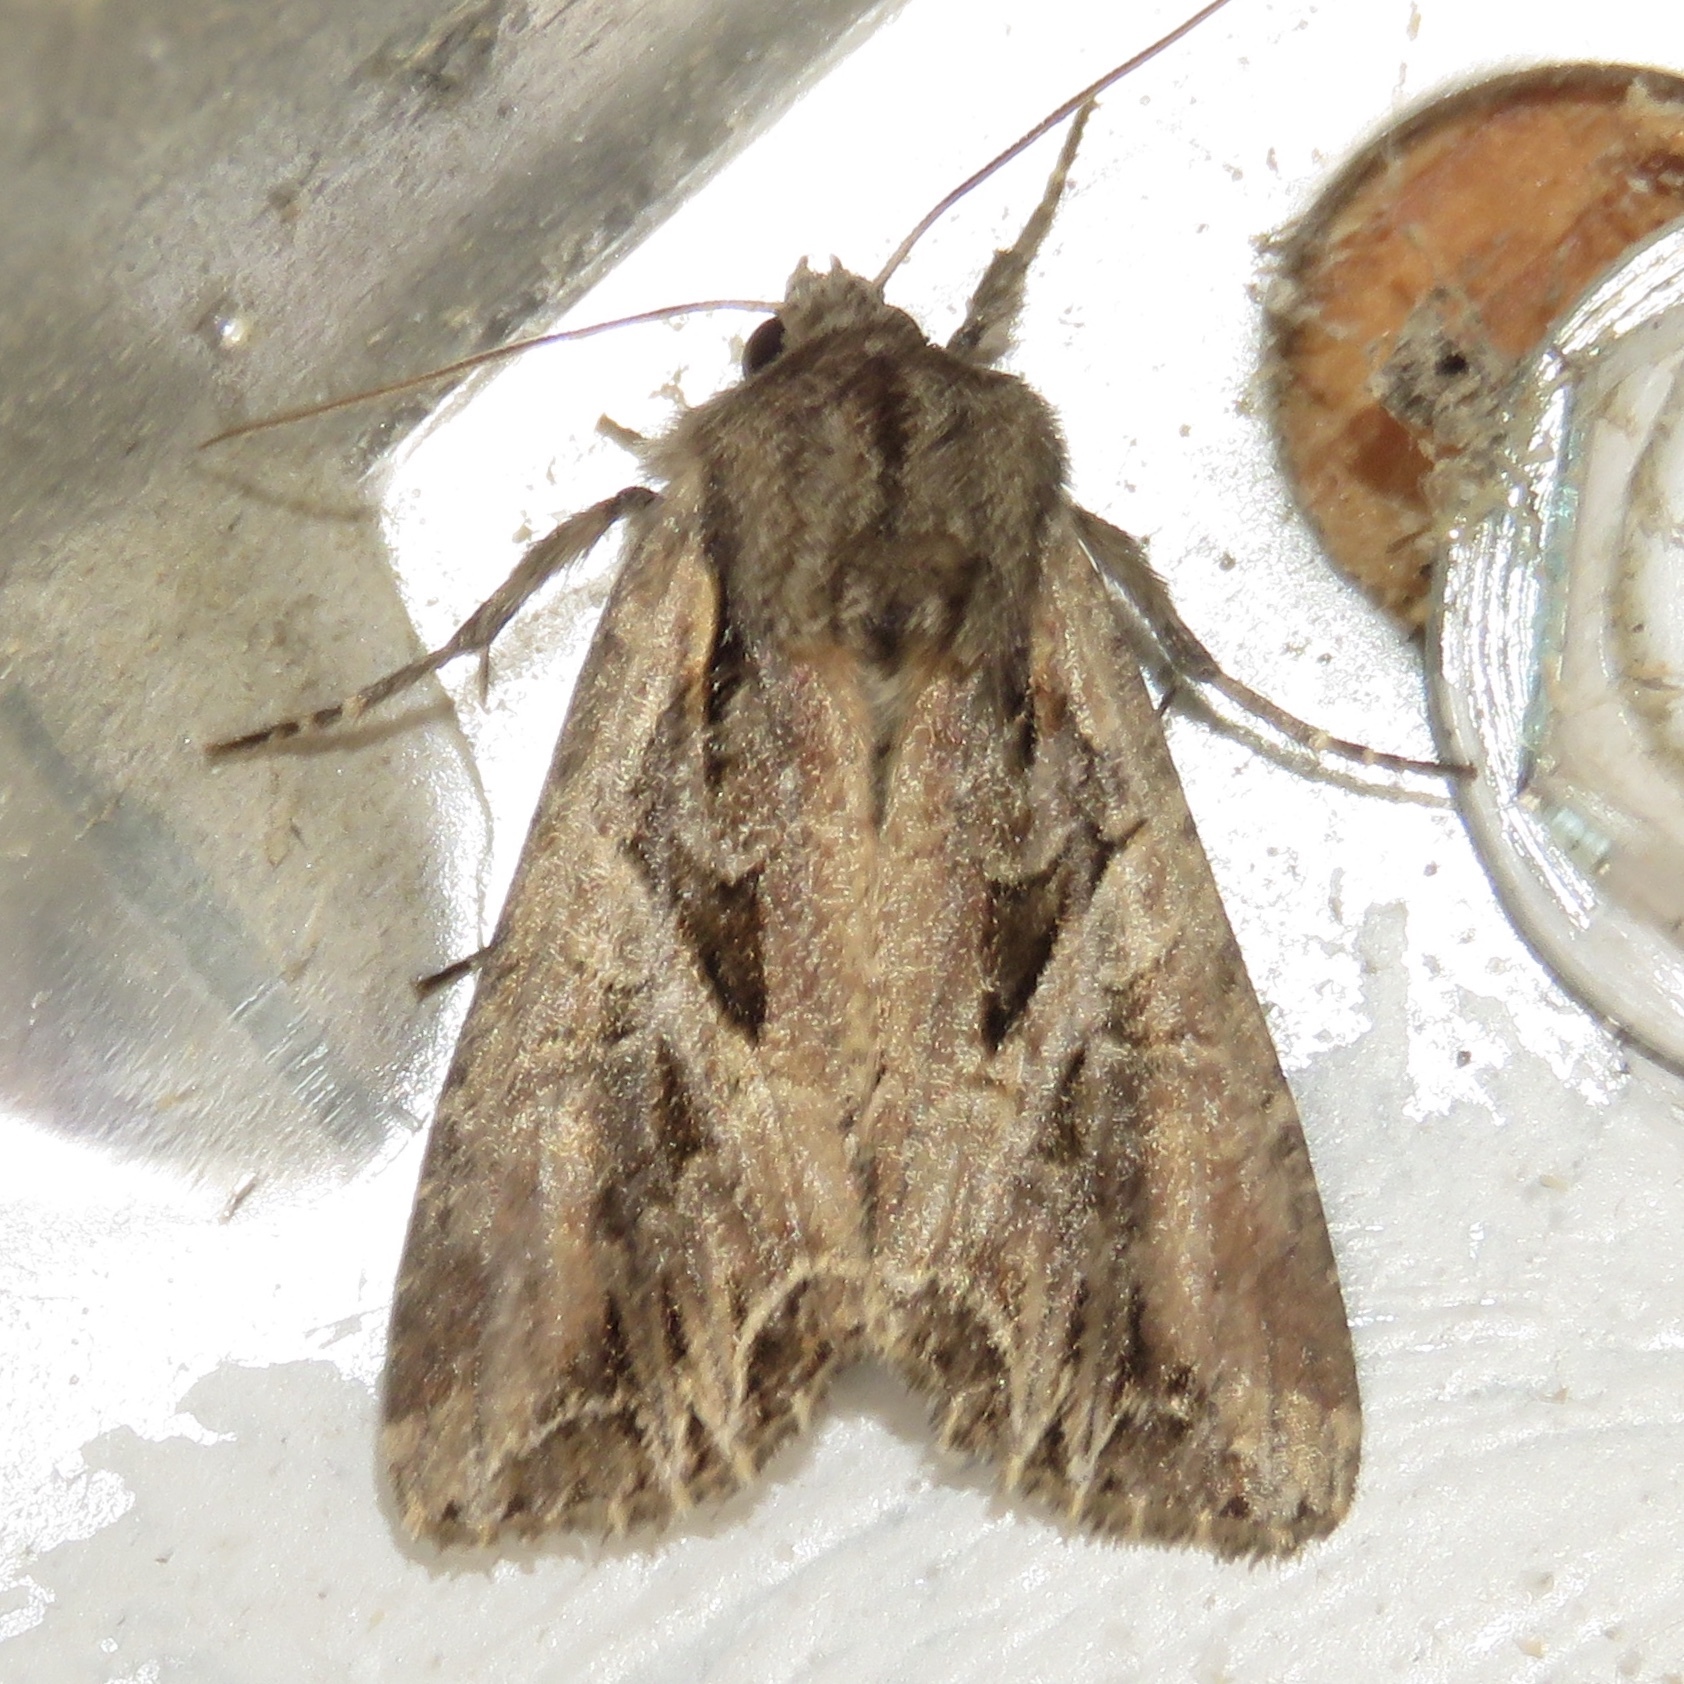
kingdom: Animalia
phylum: Arthropoda
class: Insecta
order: Lepidoptera
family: Noctuidae
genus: Lacanobia
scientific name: Lacanobia atlantica
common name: Atlantic arches moth
